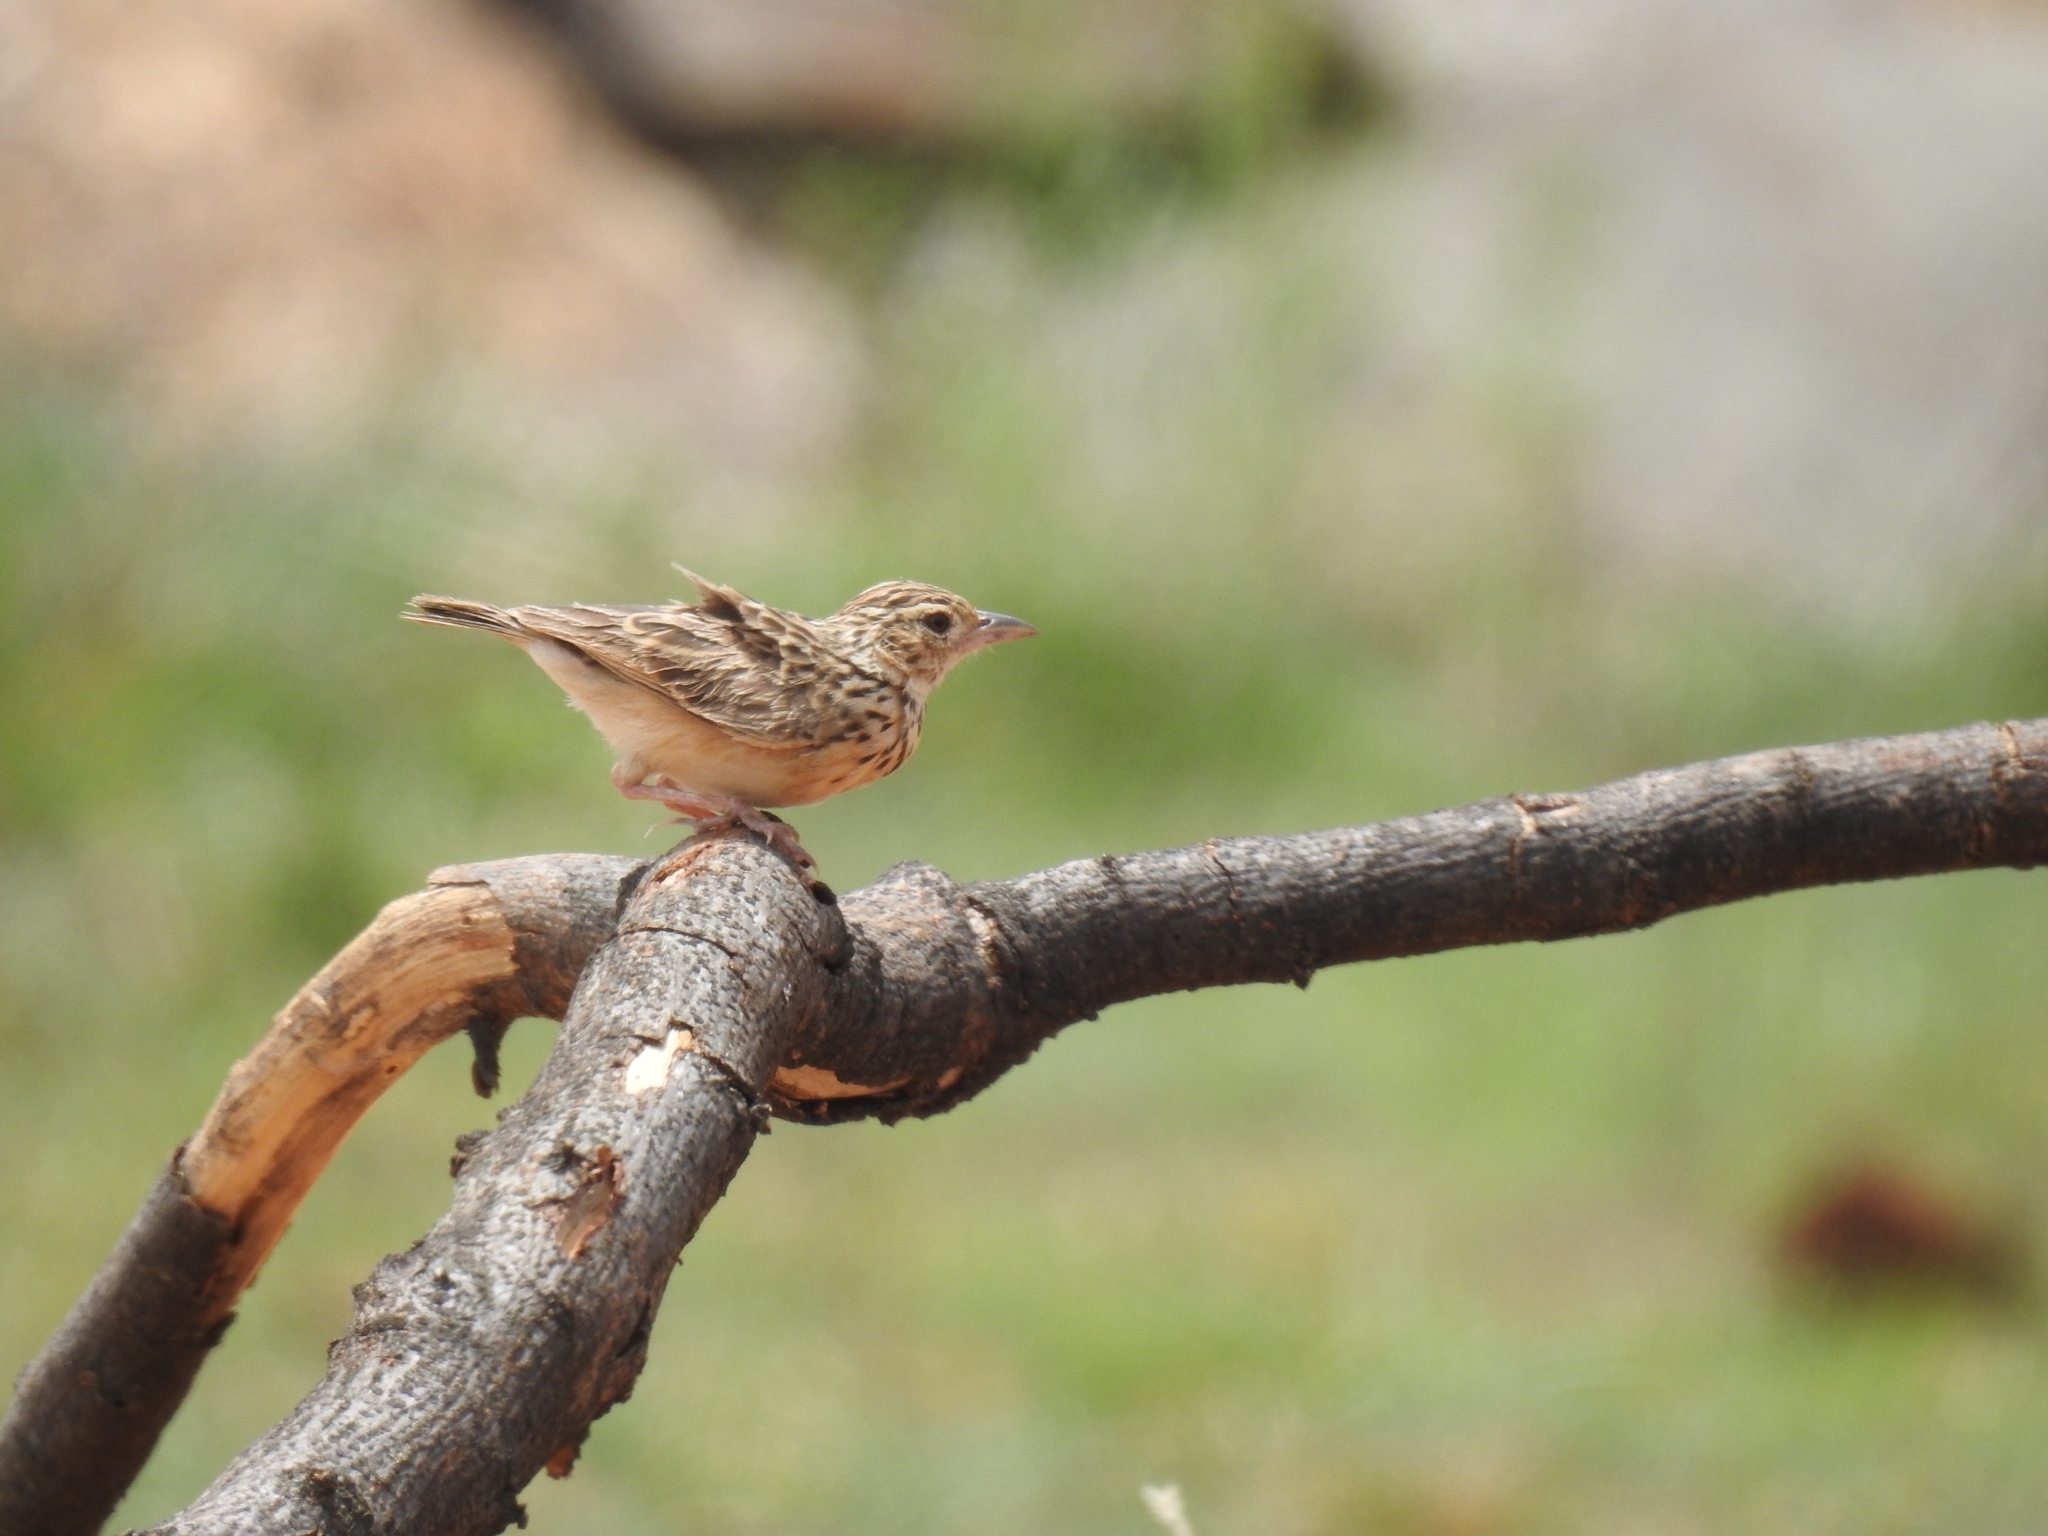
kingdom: Animalia
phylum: Chordata
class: Aves
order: Passeriformes
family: Alaudidae
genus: Mirafra
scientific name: Mirafra affinis
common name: Jerdon's bushlark
